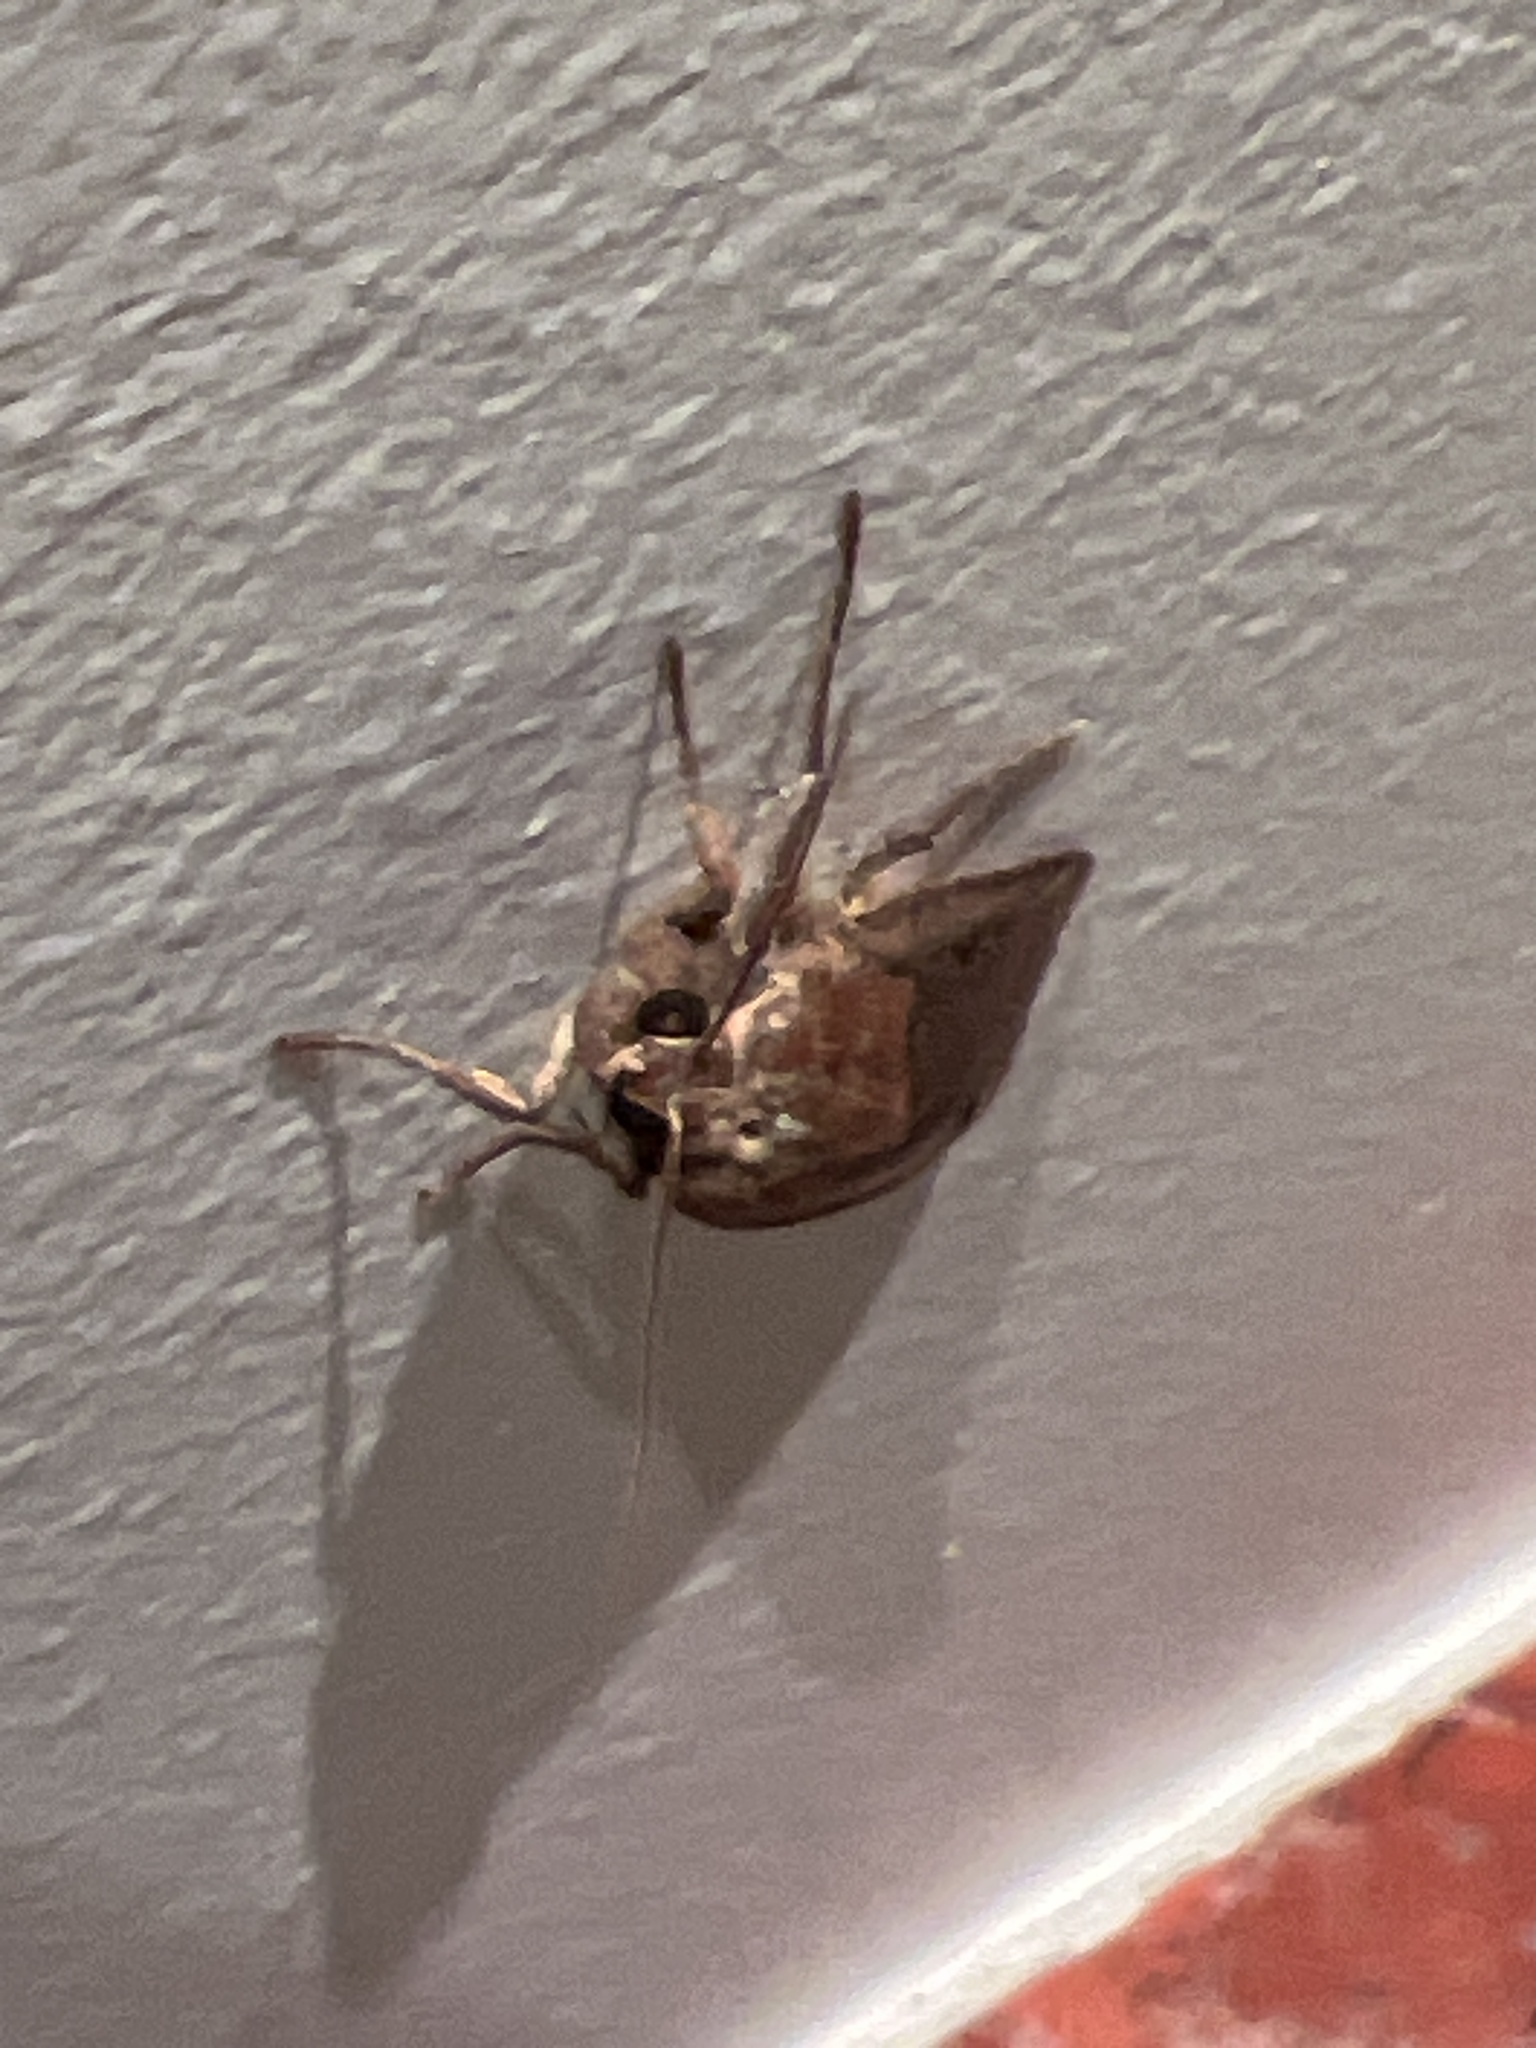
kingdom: Animalia
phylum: Arthropoda
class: Insecta
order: Lepidoptera
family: Noctuidae
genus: Noctua
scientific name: Noctua pronuba
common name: Large yellow underwing
